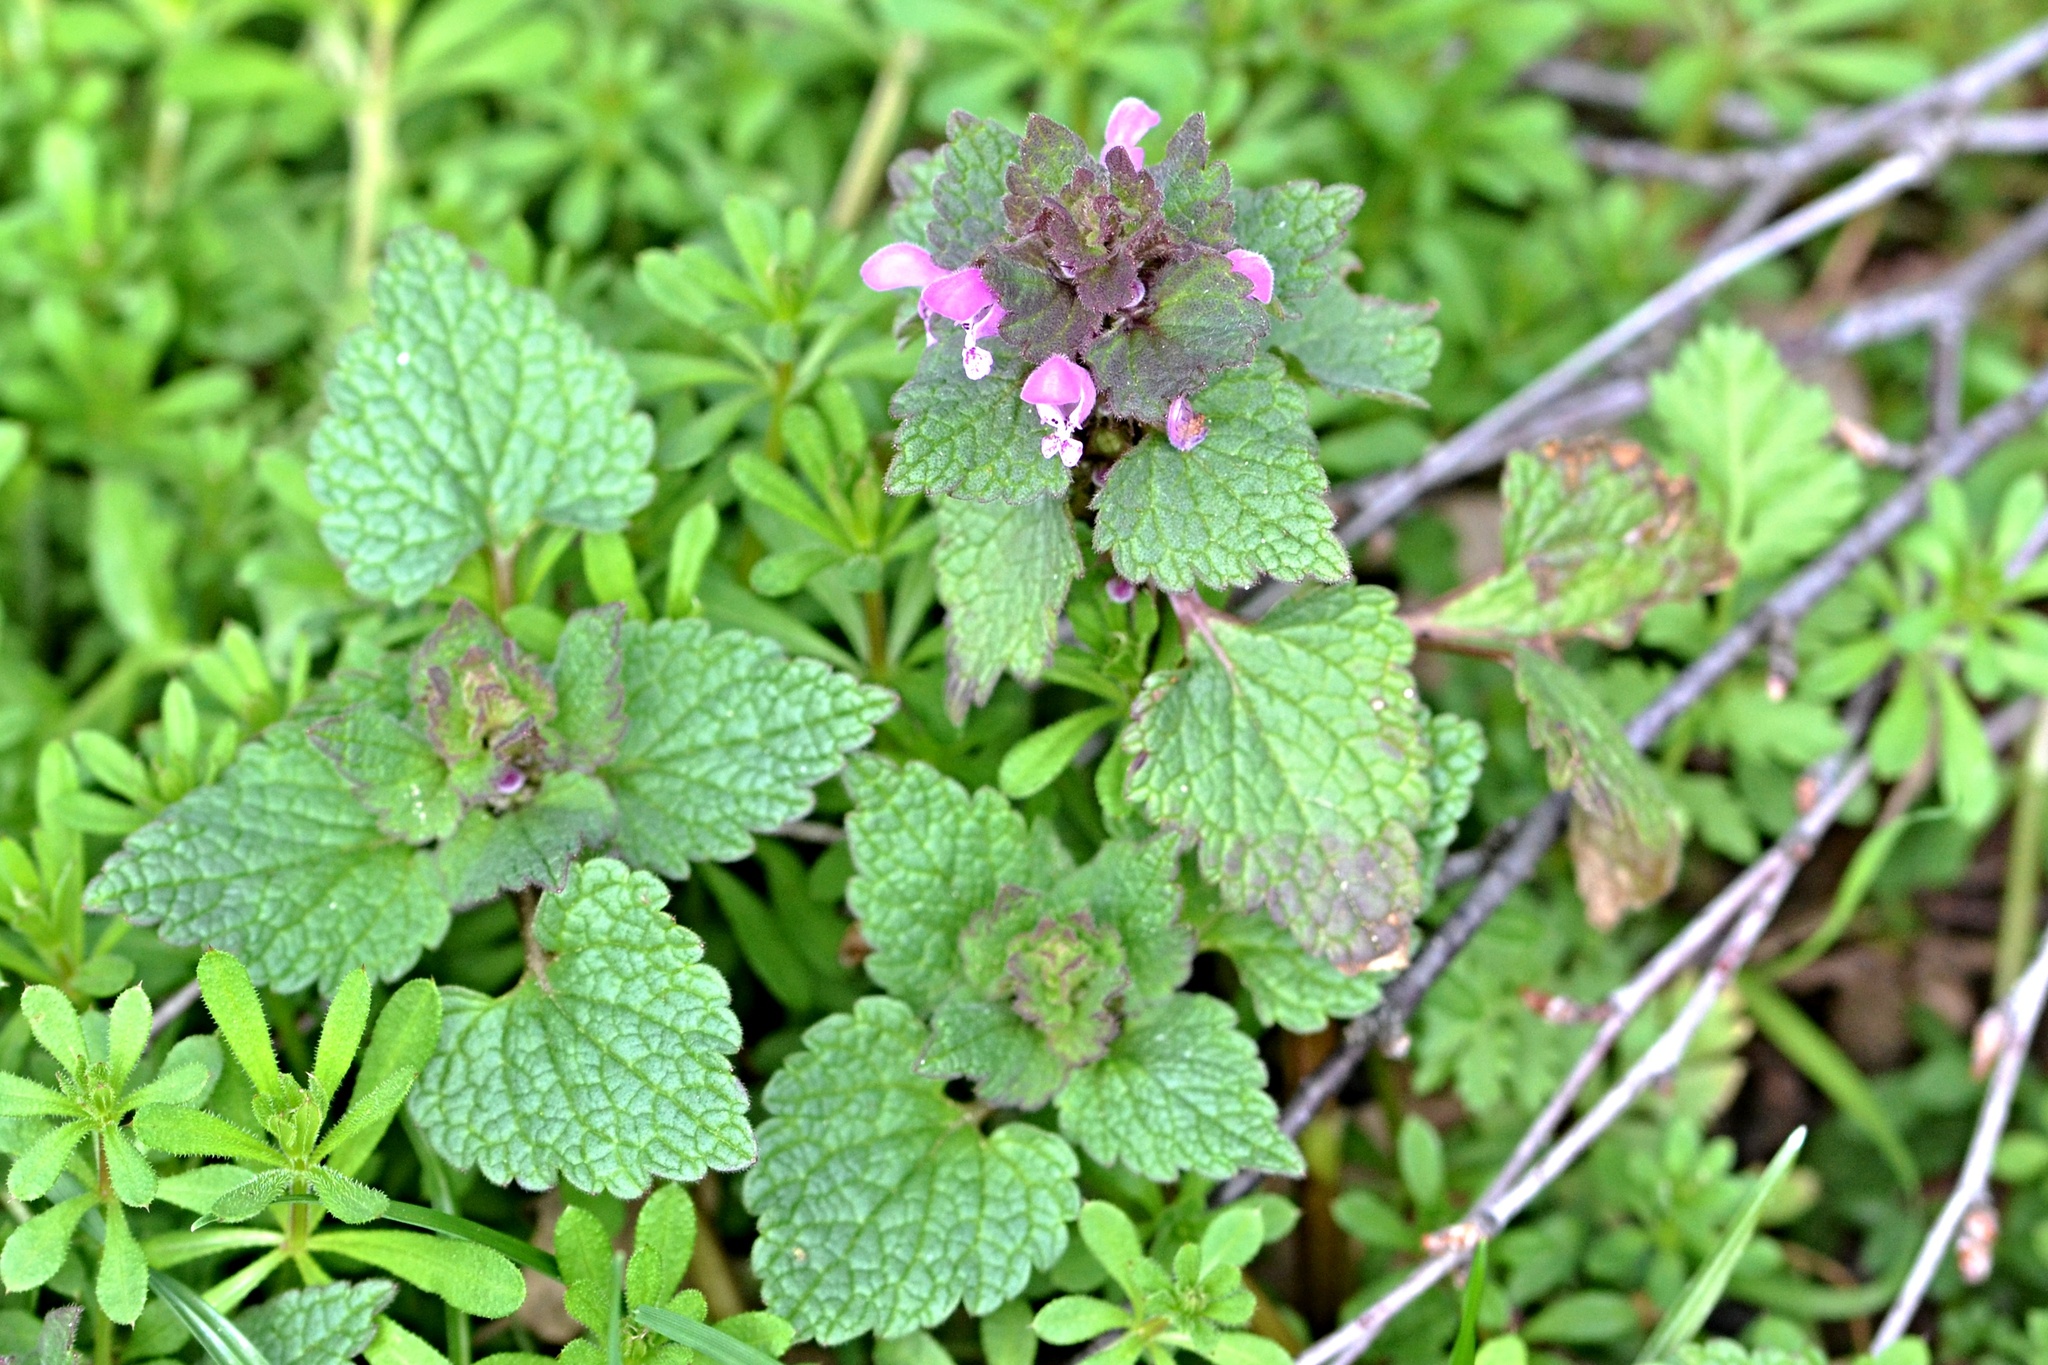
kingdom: Plantae
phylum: Tracheophyta
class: Magnoliopsida
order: Lamiales
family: Lamiaceae
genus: Lamium
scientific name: Lamium purpureum
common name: Red dead-nettle
